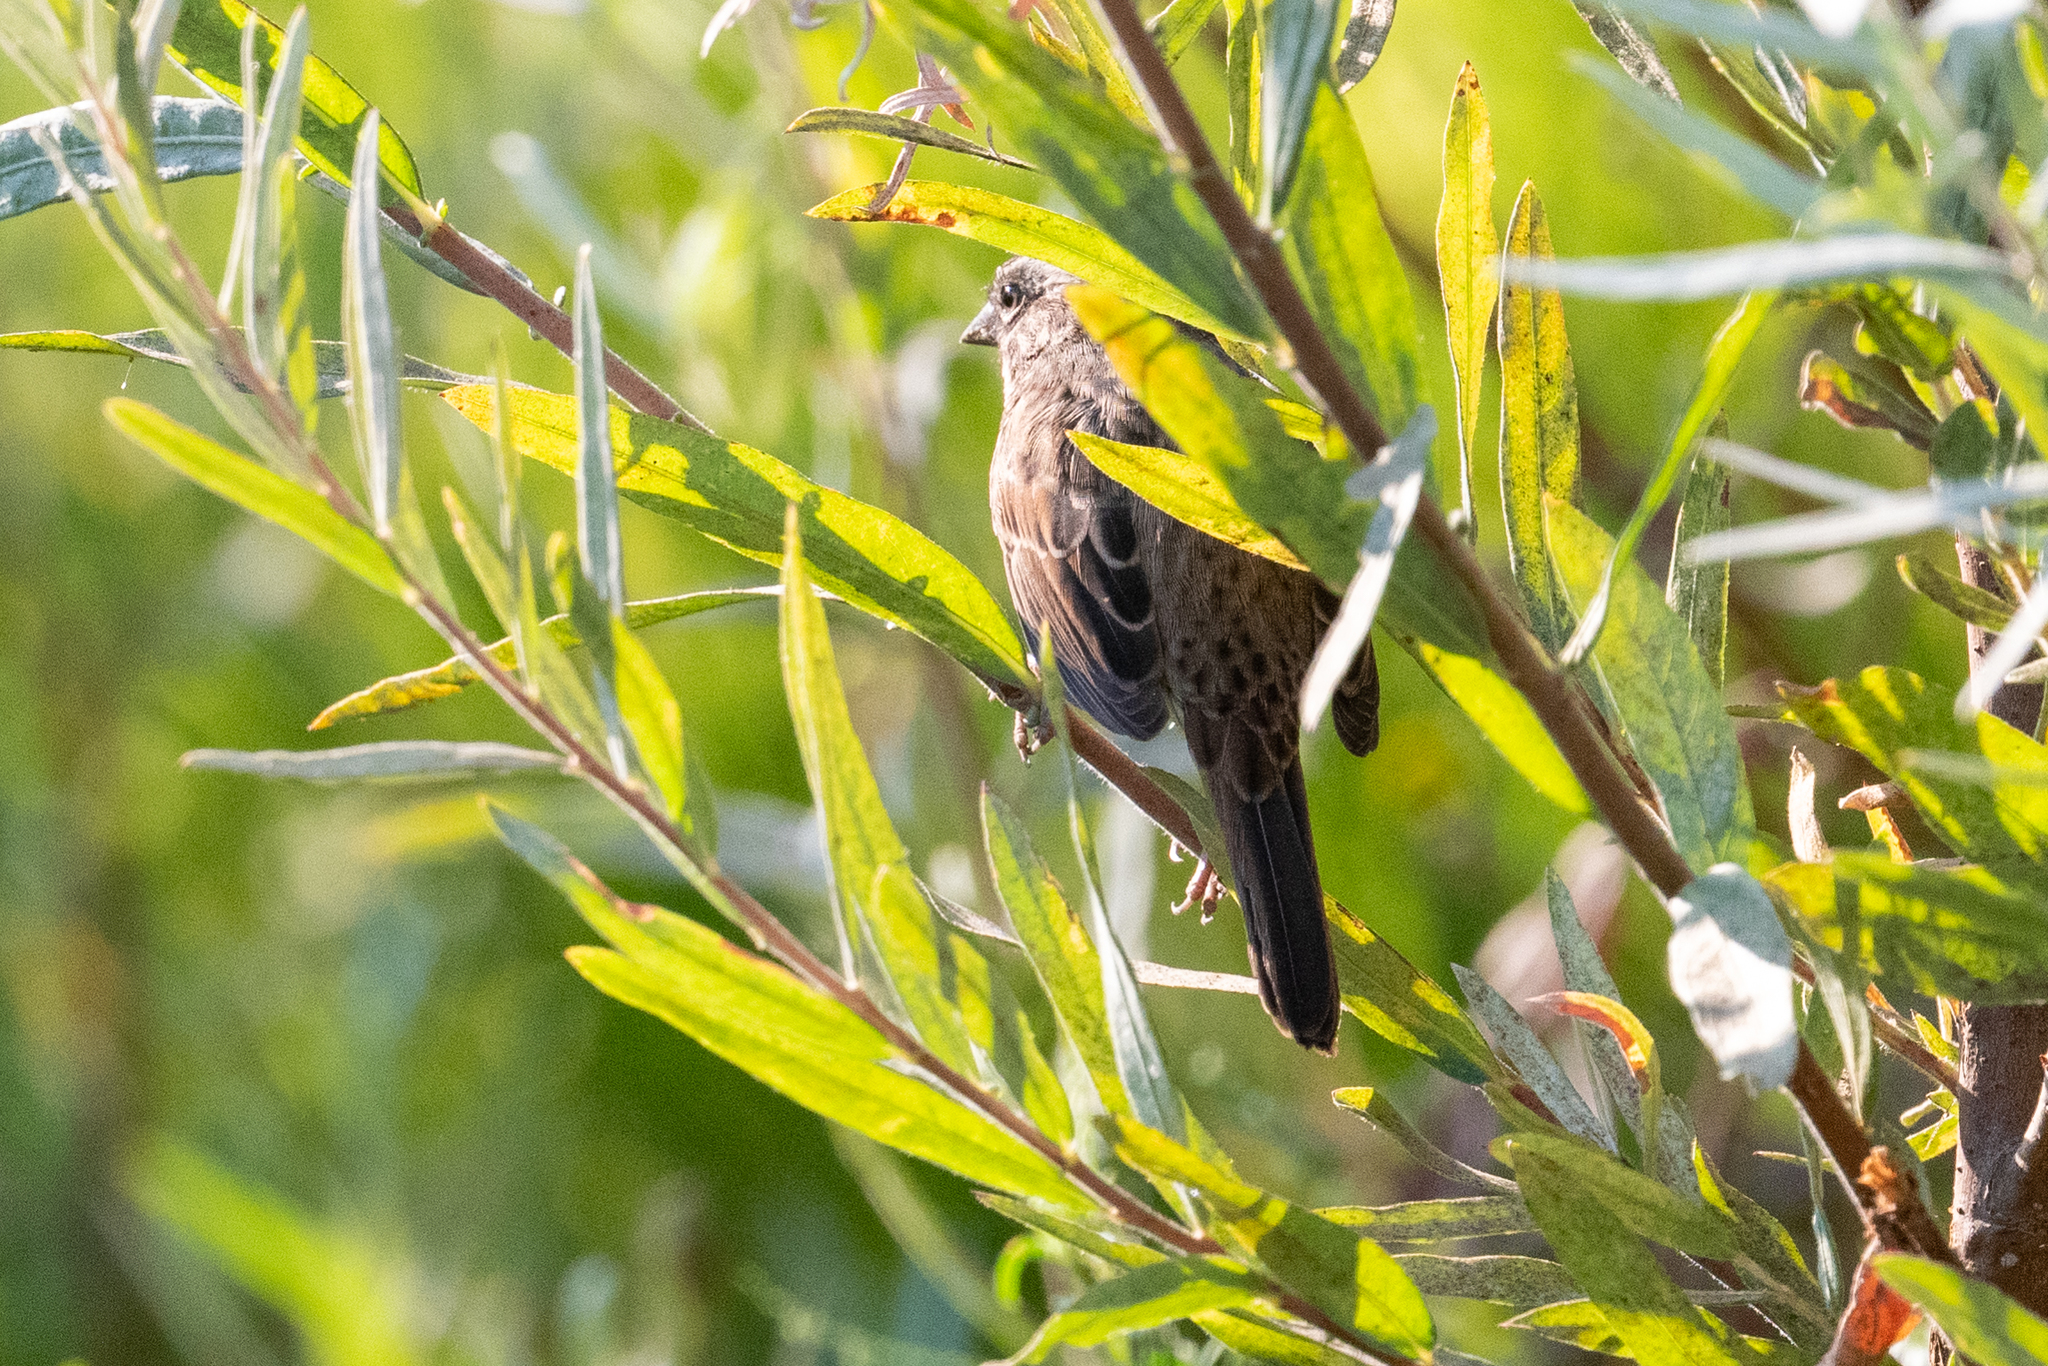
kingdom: Animalia
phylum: Chordata
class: Aves
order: Passeriformes
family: Passerellidae
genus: Melospiza
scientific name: Melospiza melodia
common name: Song sparrow
